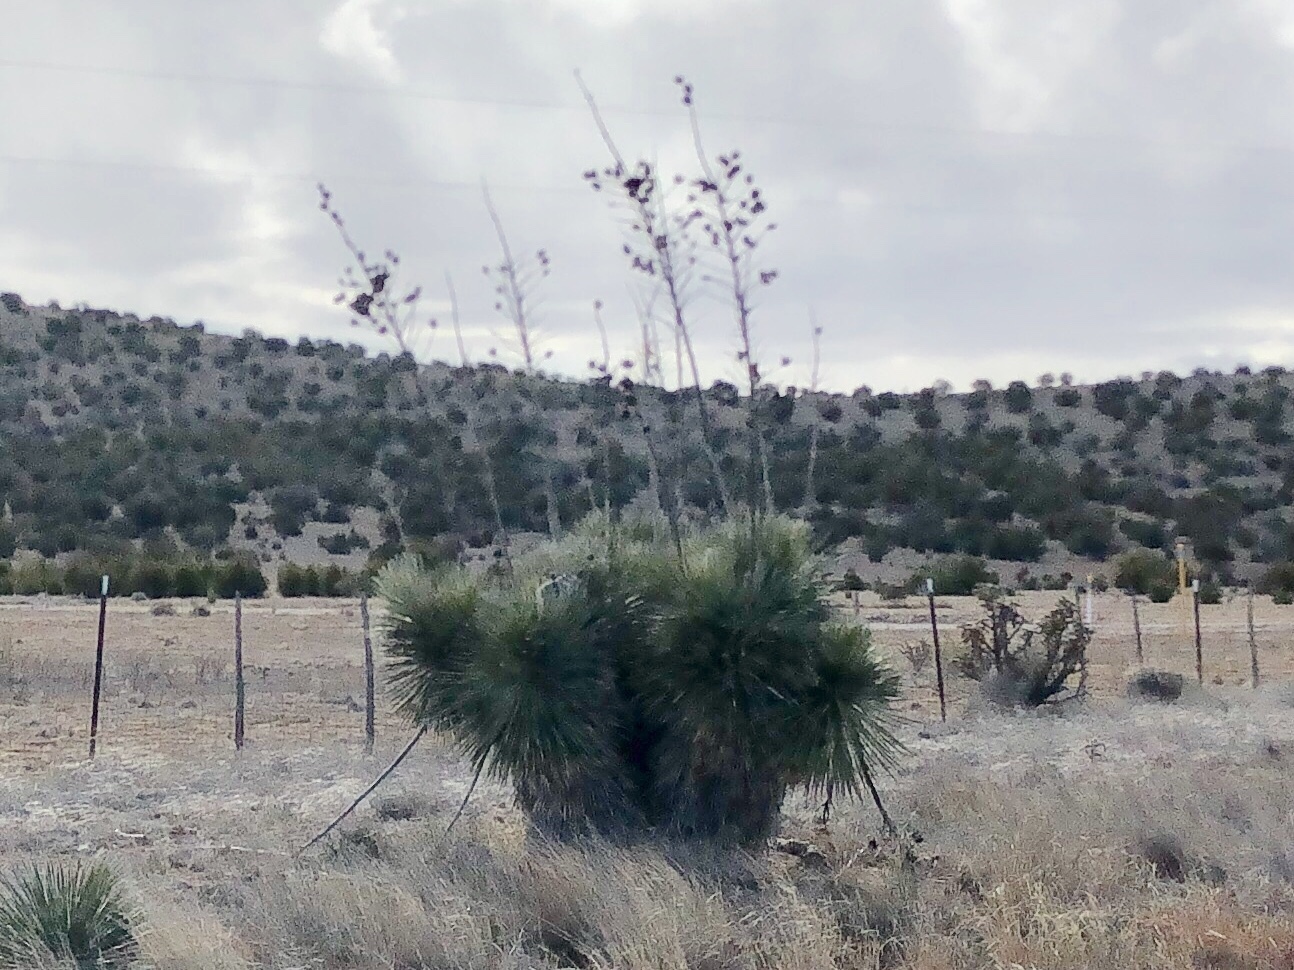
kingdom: Plantae
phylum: Tracheophyta
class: Liliopsida
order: Asparagales
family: Asparagaceae
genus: Yucca
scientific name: Yucca elata
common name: Palmella
